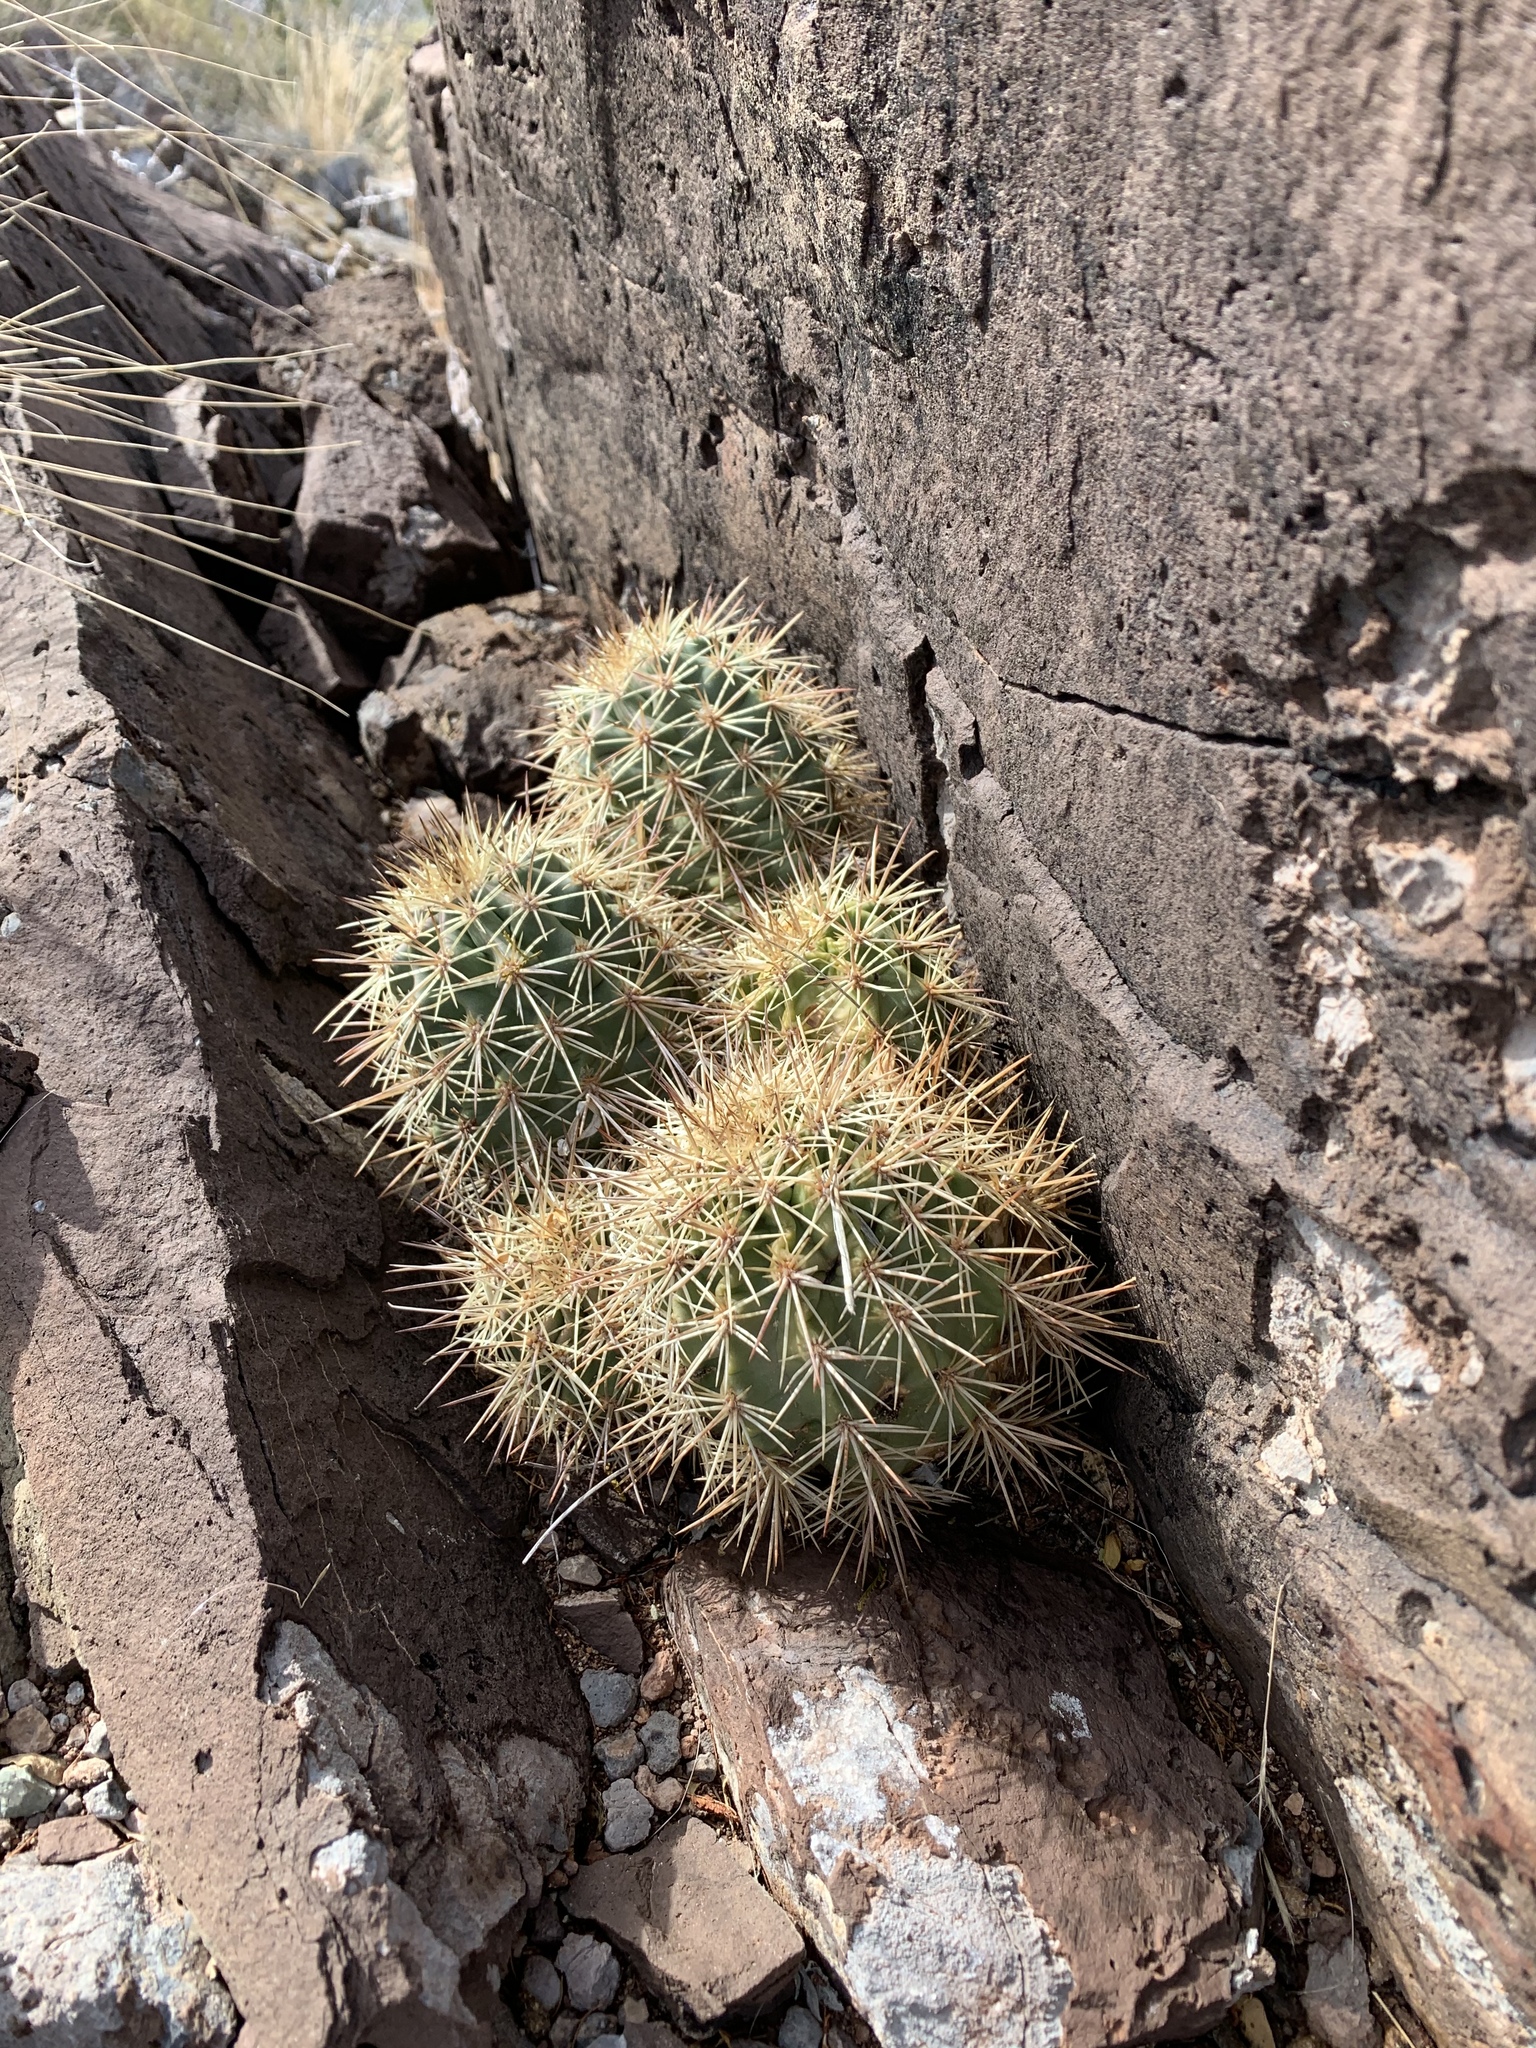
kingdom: Plantae
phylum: Tracheophyta
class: Magnoliopsida
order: Caryophyllales
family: Cactaceae
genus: Echinocereus
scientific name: Echinocereus coccineus
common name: Scarlet hedgehog cactus
